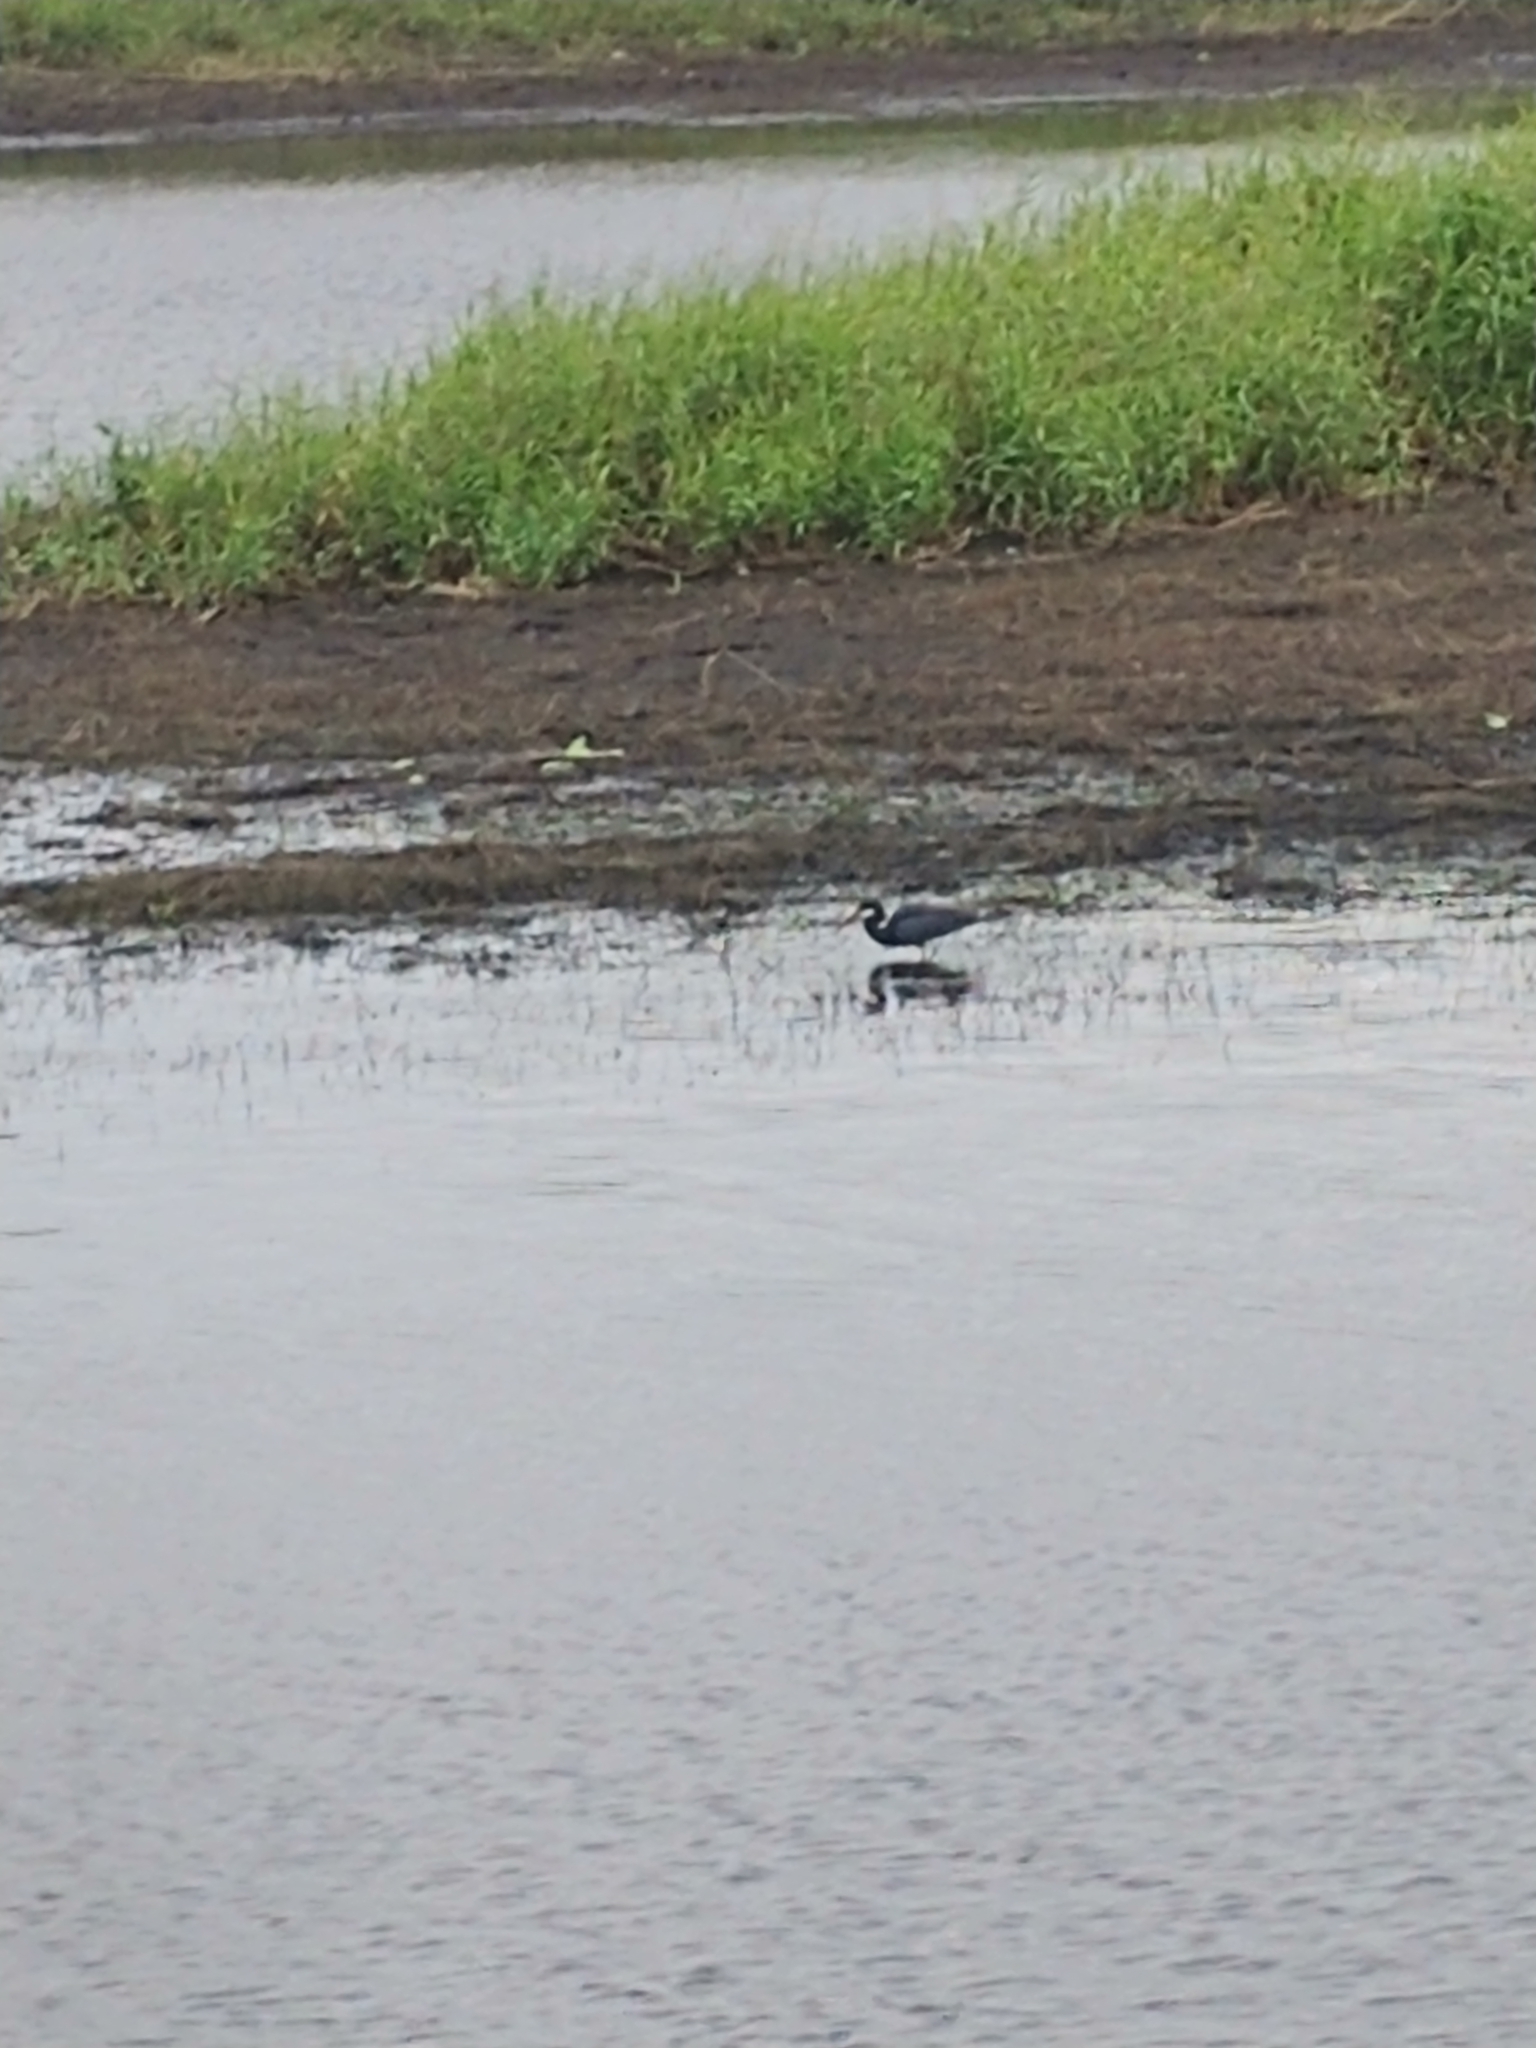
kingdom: Animalia
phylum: Chordata
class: Aves
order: Pelecaniformes
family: Ardeidae
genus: Egretta
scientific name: Egretta tricolor
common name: Tricolored heron
